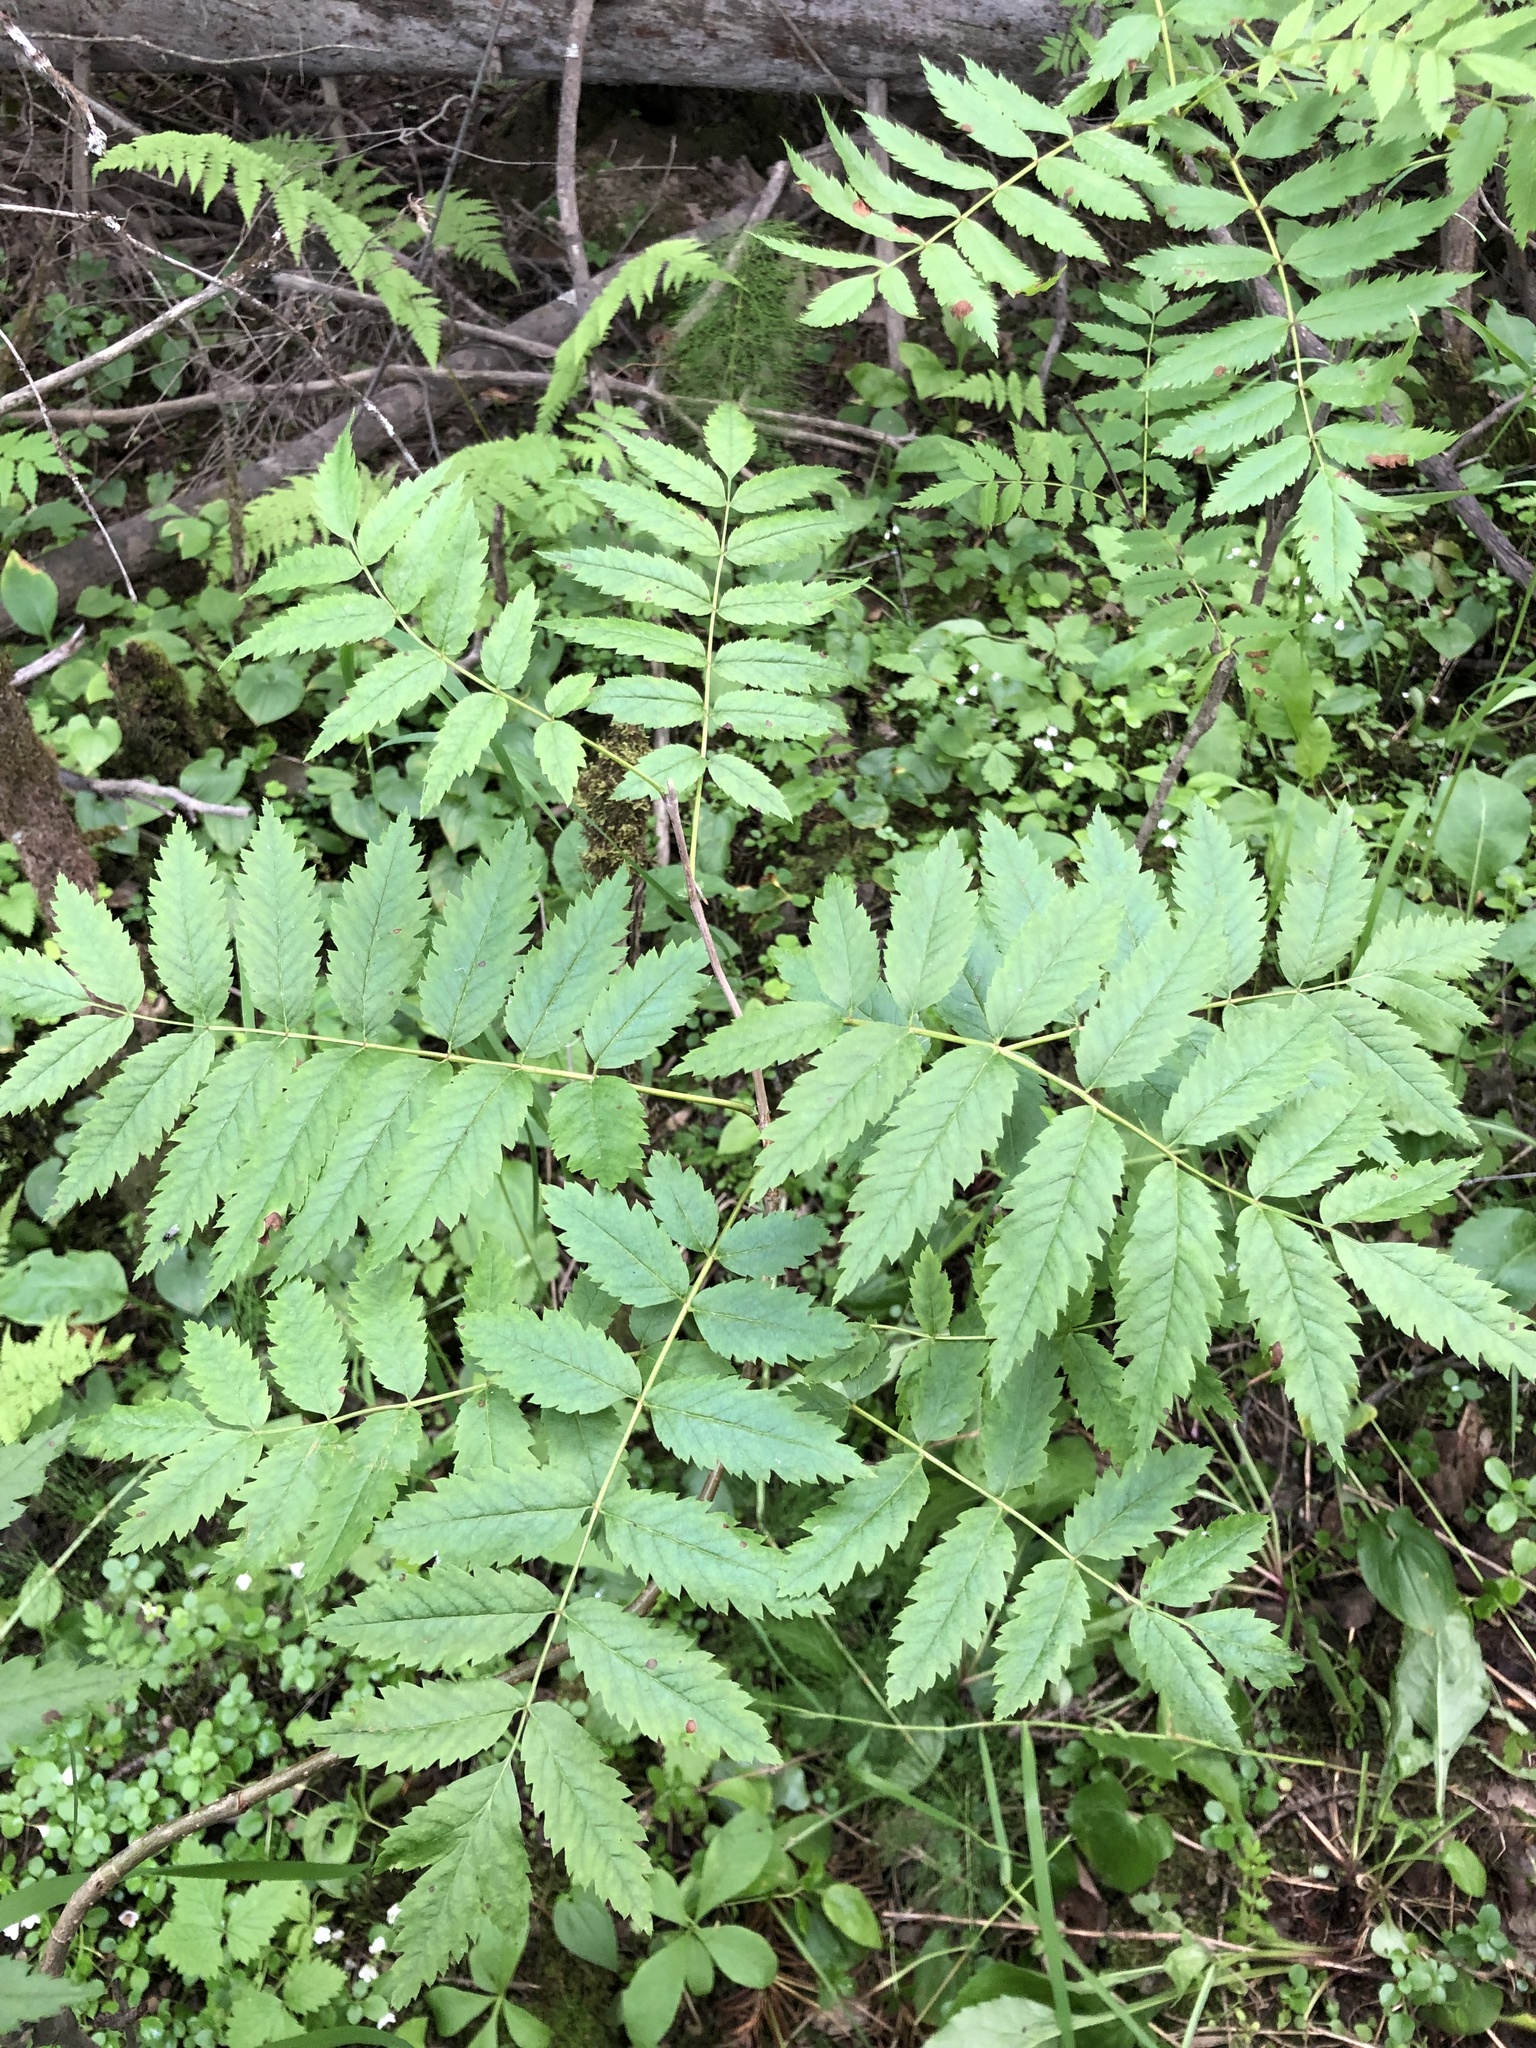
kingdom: Plantae
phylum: Tracheophyta
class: Magnoliopsida
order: Rosales
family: Rosaceae
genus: Sorbus
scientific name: Sorbus aucuparia
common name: Rowan
